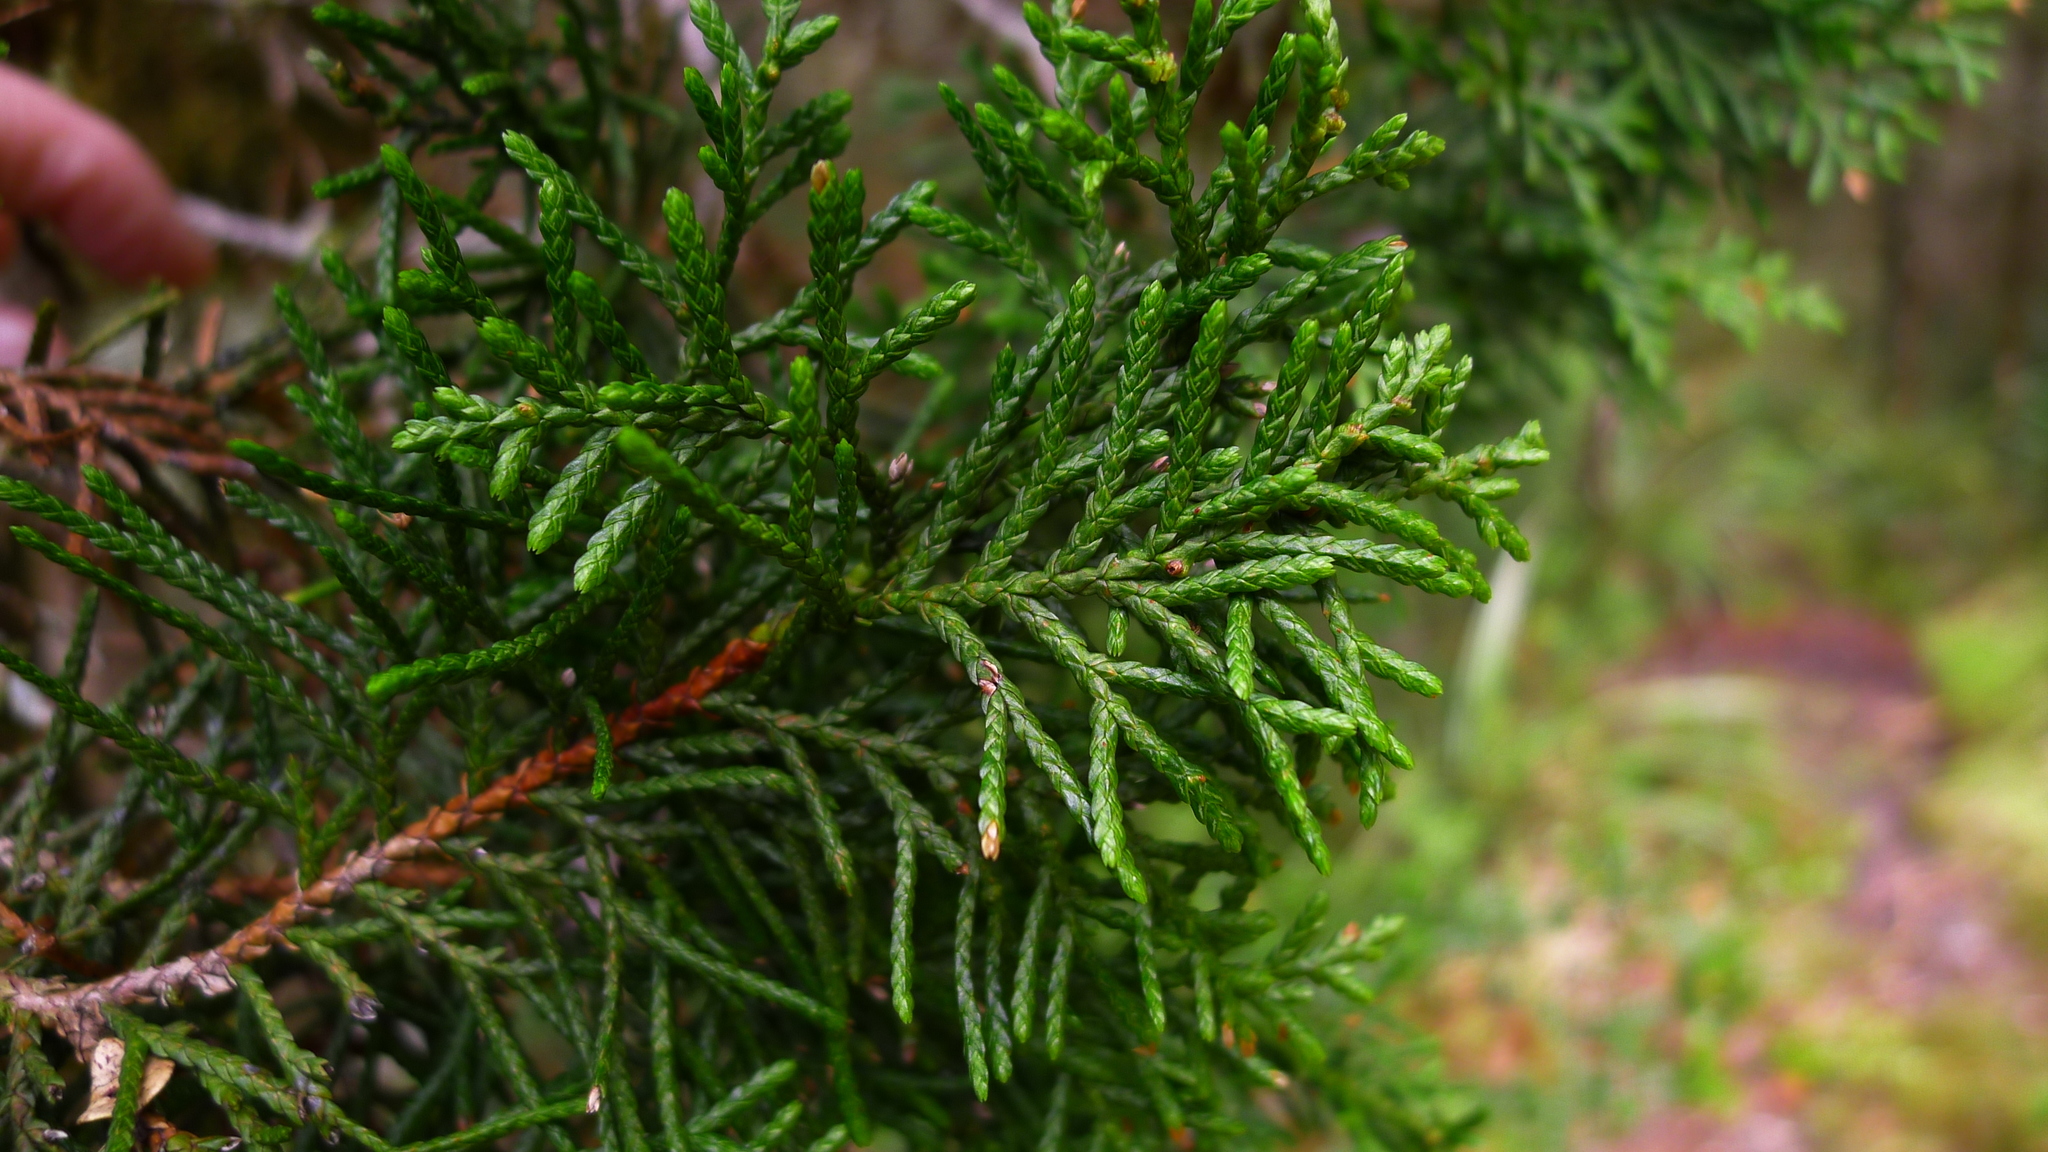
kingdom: Plantae
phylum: Tracheophyta
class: Pinopsida
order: Pinales
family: Cupressaceae
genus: Libocedrus
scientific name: Libocedrus bidwillii
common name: Cedar
